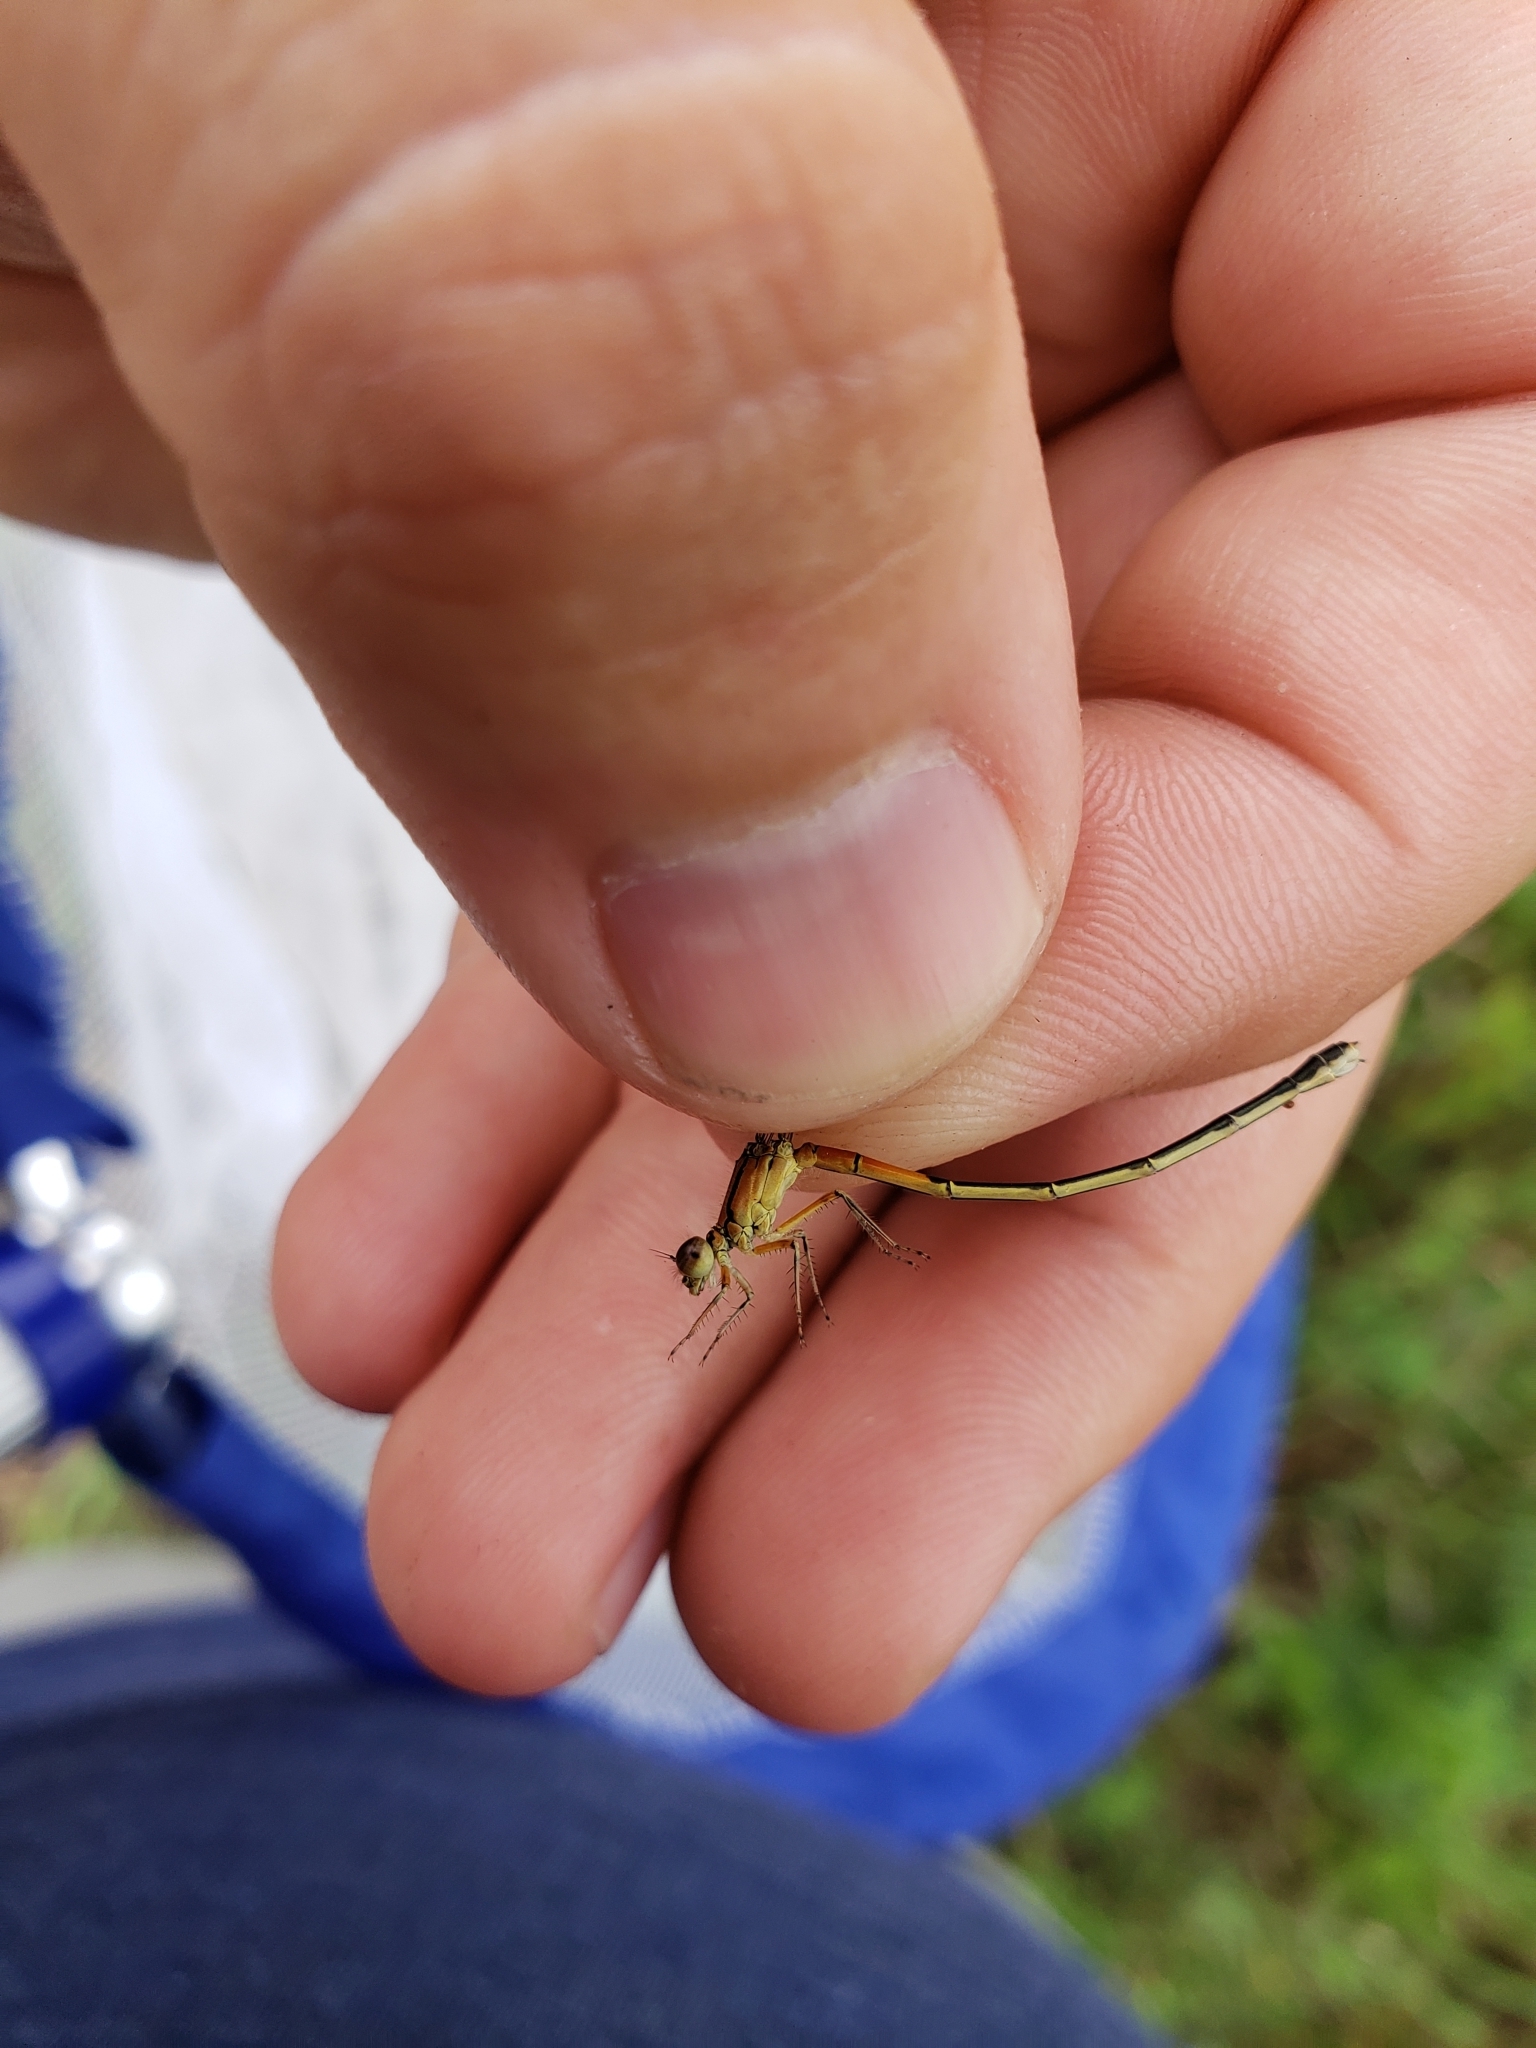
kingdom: Animalia
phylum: Arthropoda
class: Insecta
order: Odonata
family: Coenagrionidae
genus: Ischnura
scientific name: Ischnura verticalis
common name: Eastern forktail
